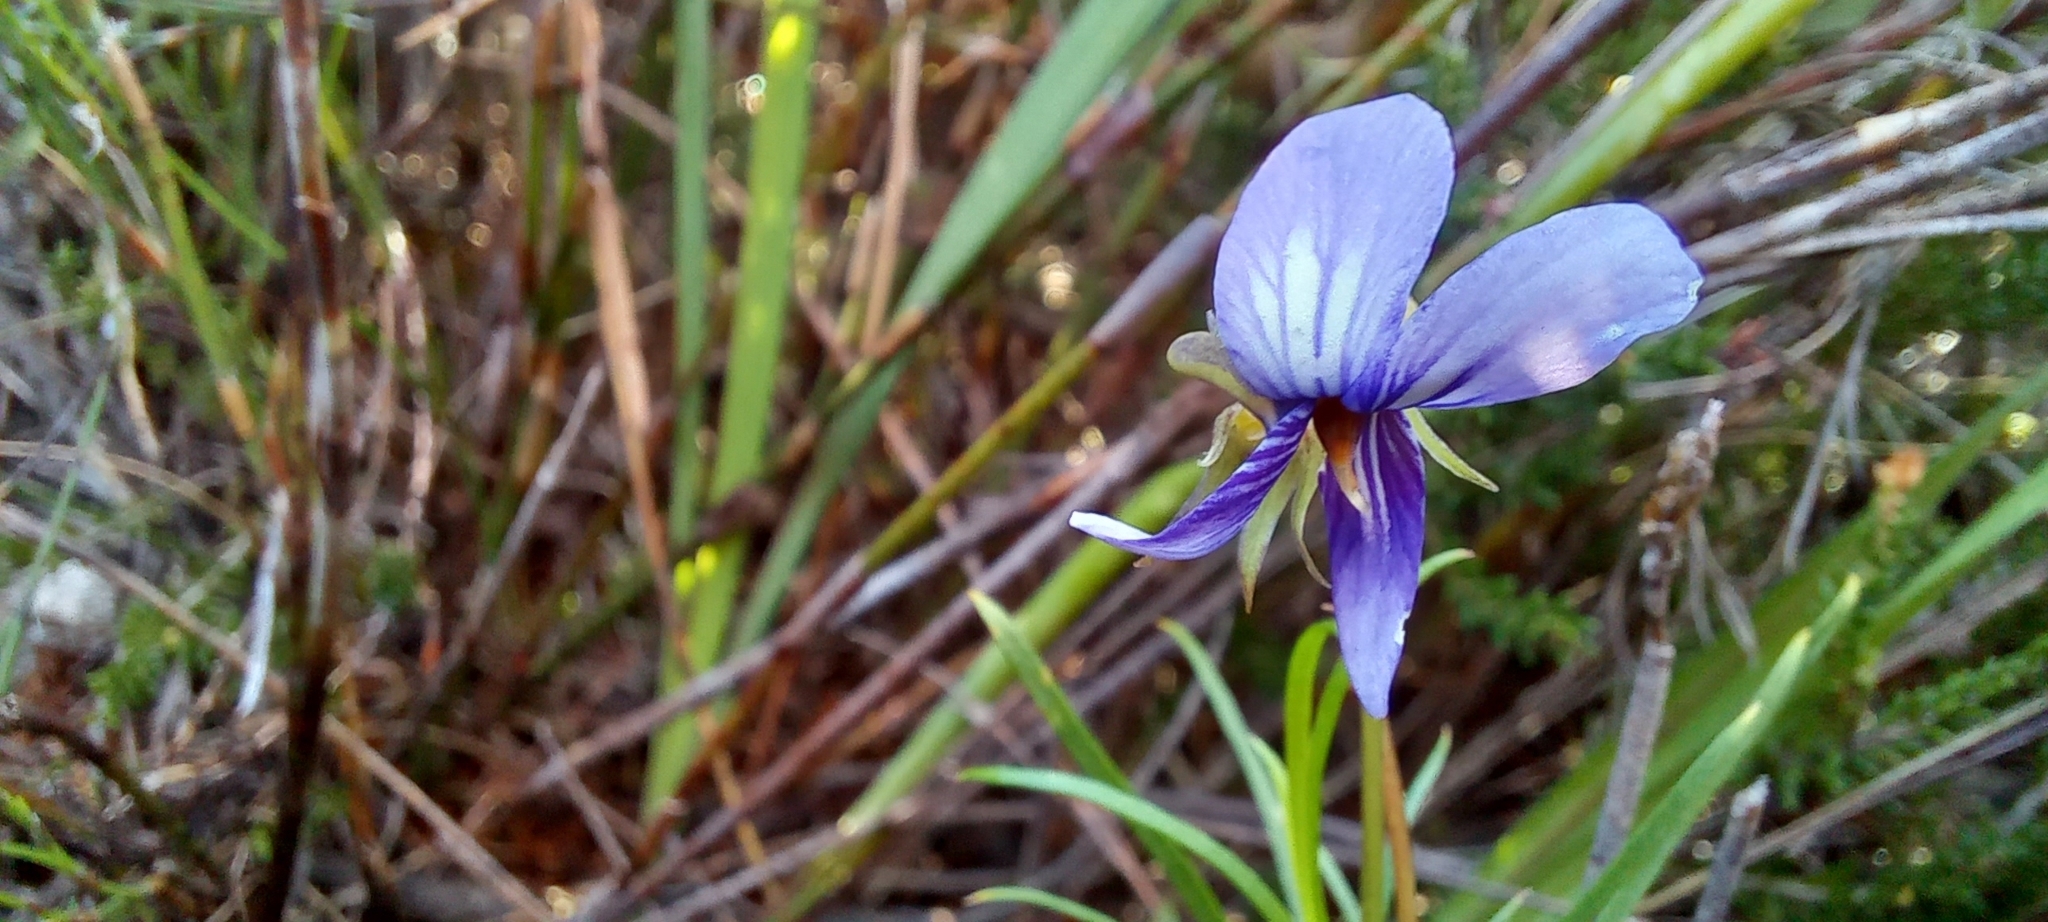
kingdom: Plantae
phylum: Tracheophyta
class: Magnoliopsida
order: Malpighiales
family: Violaceae
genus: Viola
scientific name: Viola decumbens
